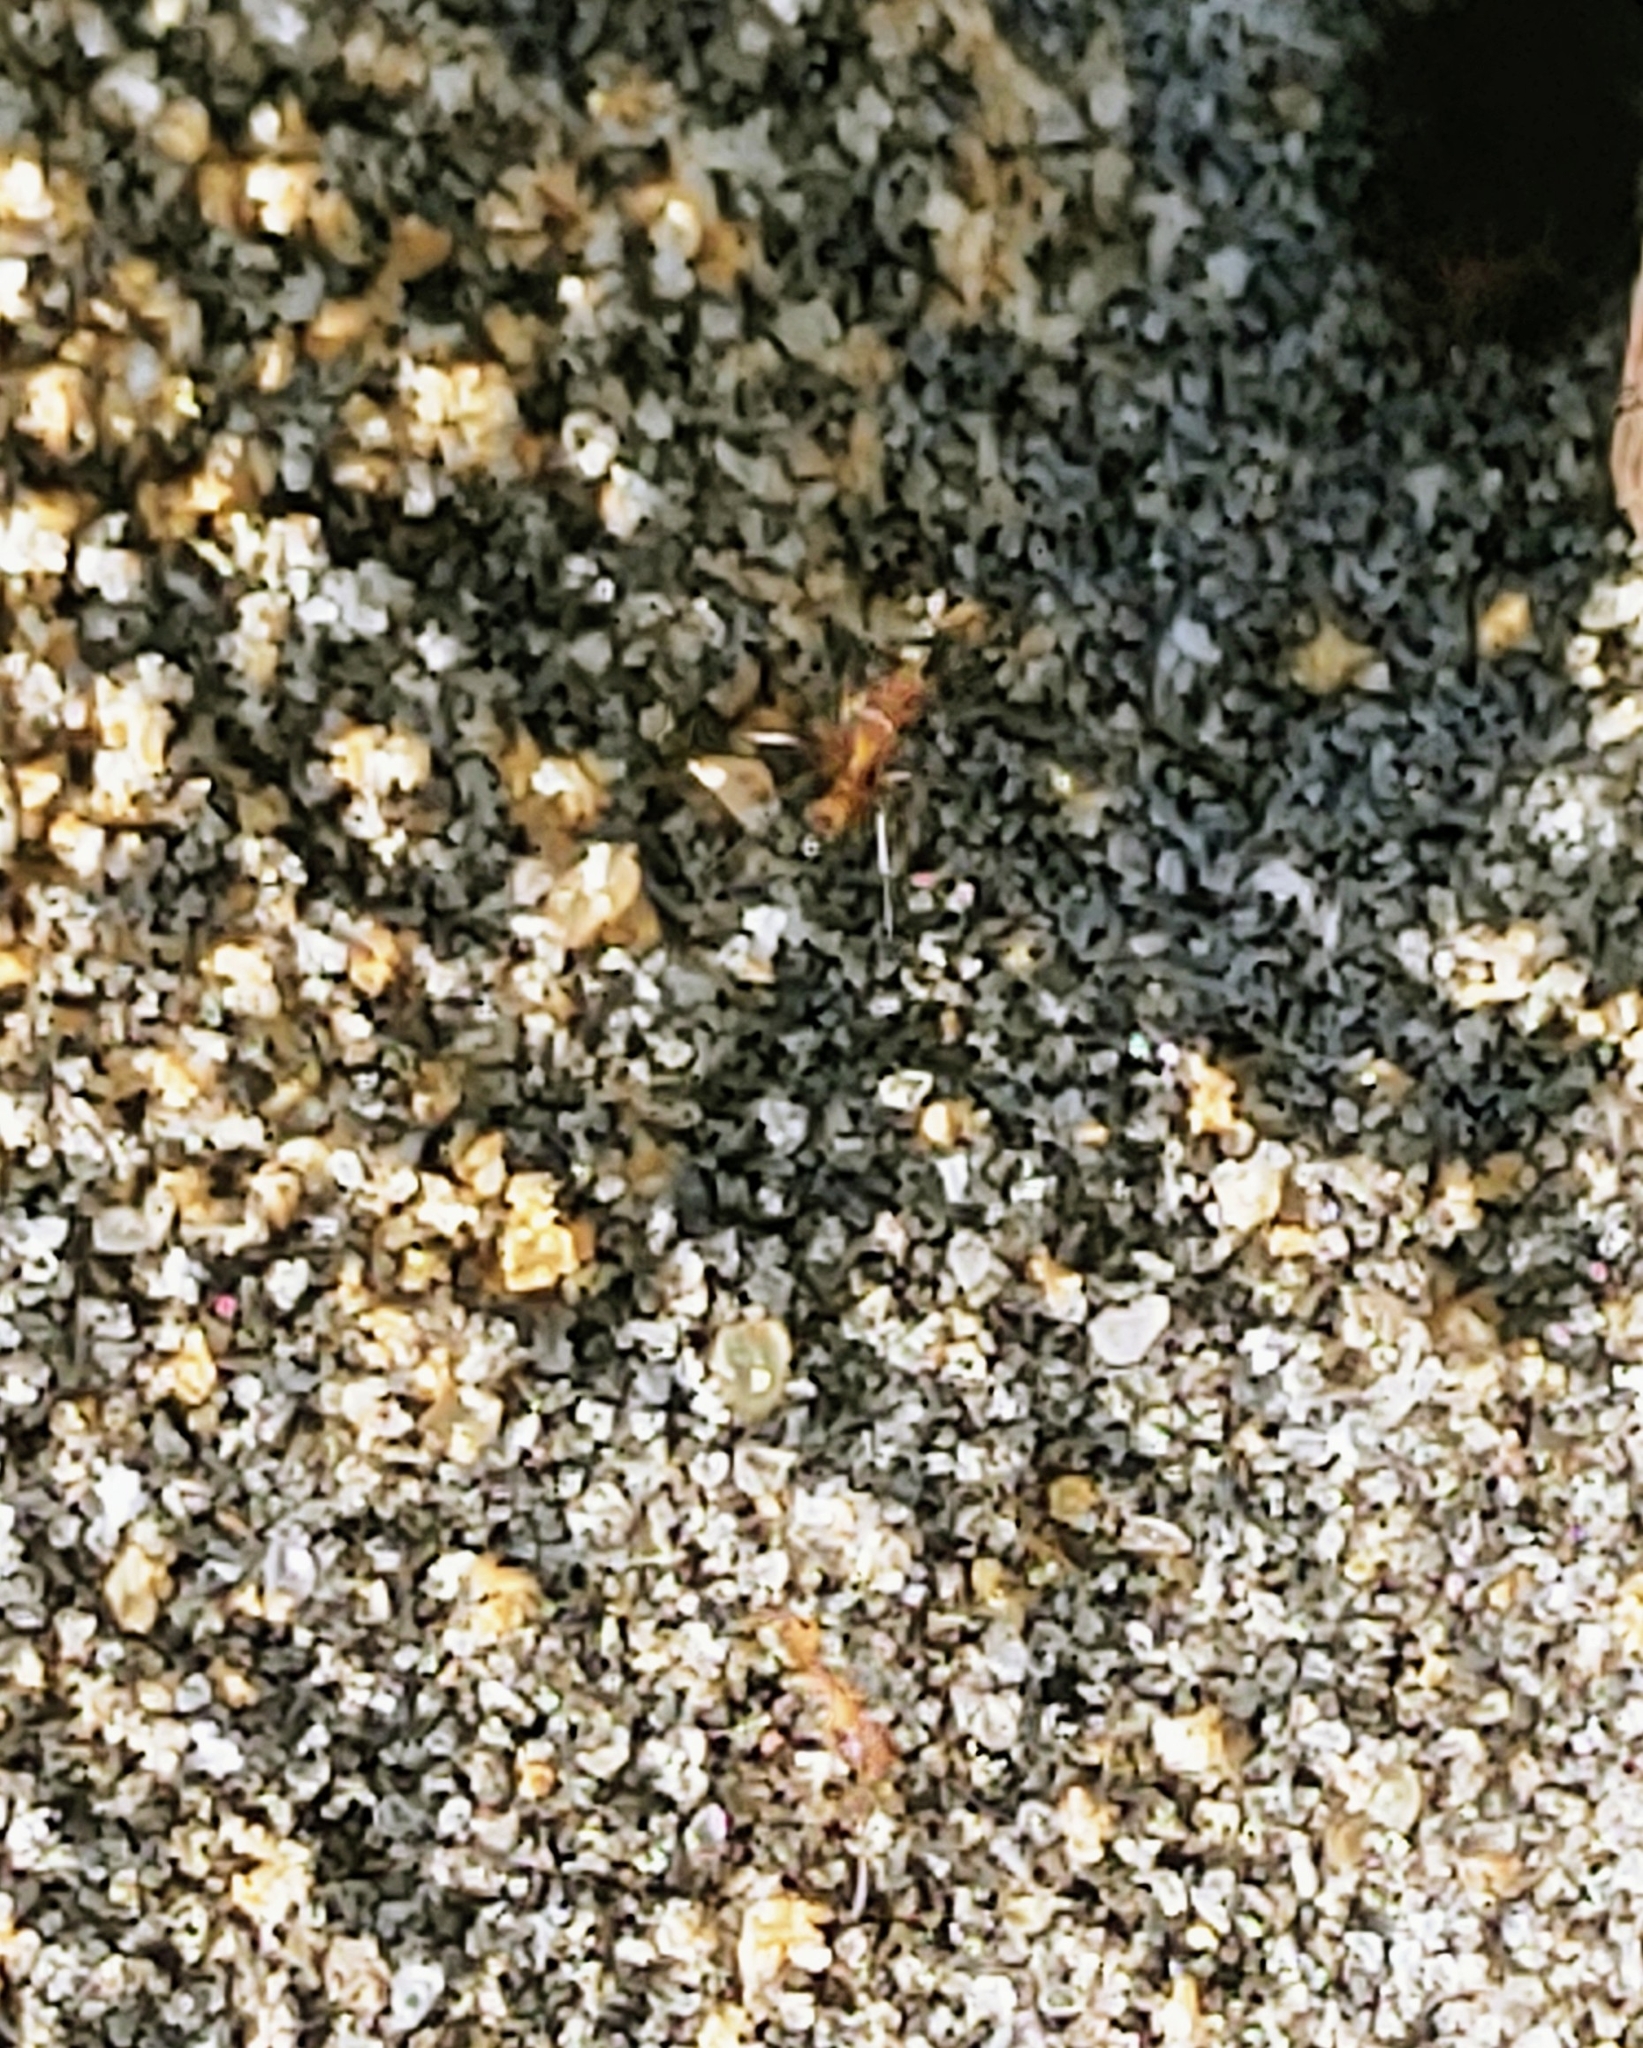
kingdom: Animalia
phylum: Arthropoda
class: Insecta
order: Hymenoptera
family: Formicidae
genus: Dorymyrmex
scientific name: Dorymyrmex bureni
